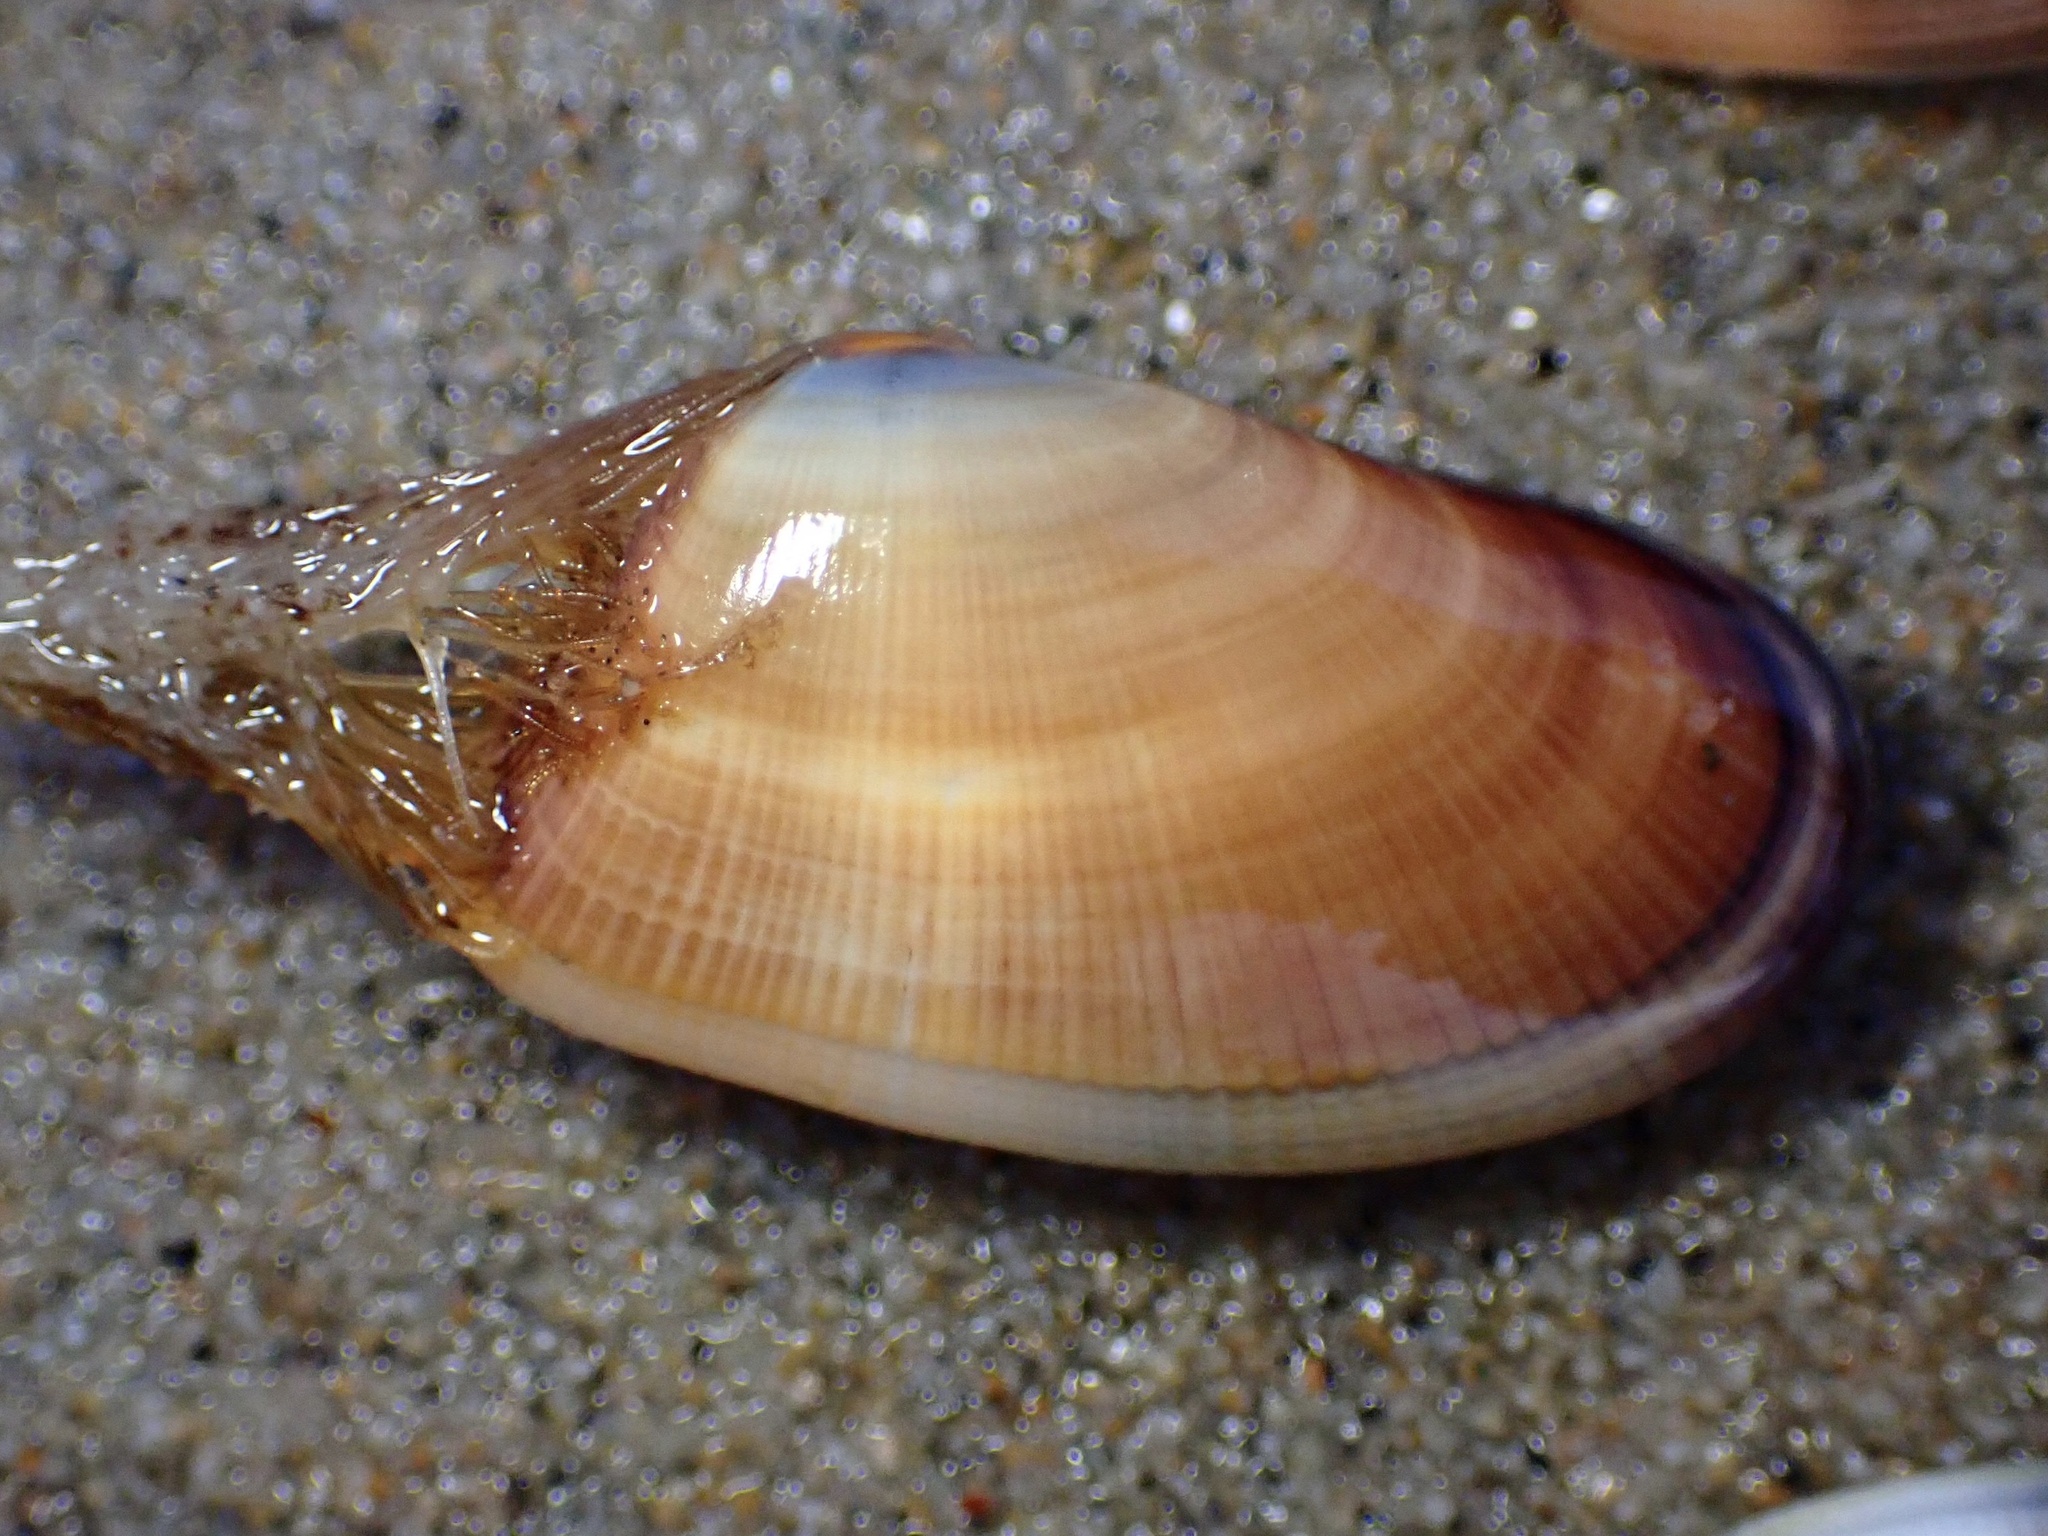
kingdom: Animalia
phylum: Mollusca
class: Bivalvia
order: Cardiida
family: Donacidae
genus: Donax
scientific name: Donax gouldii
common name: Gould beanclam
